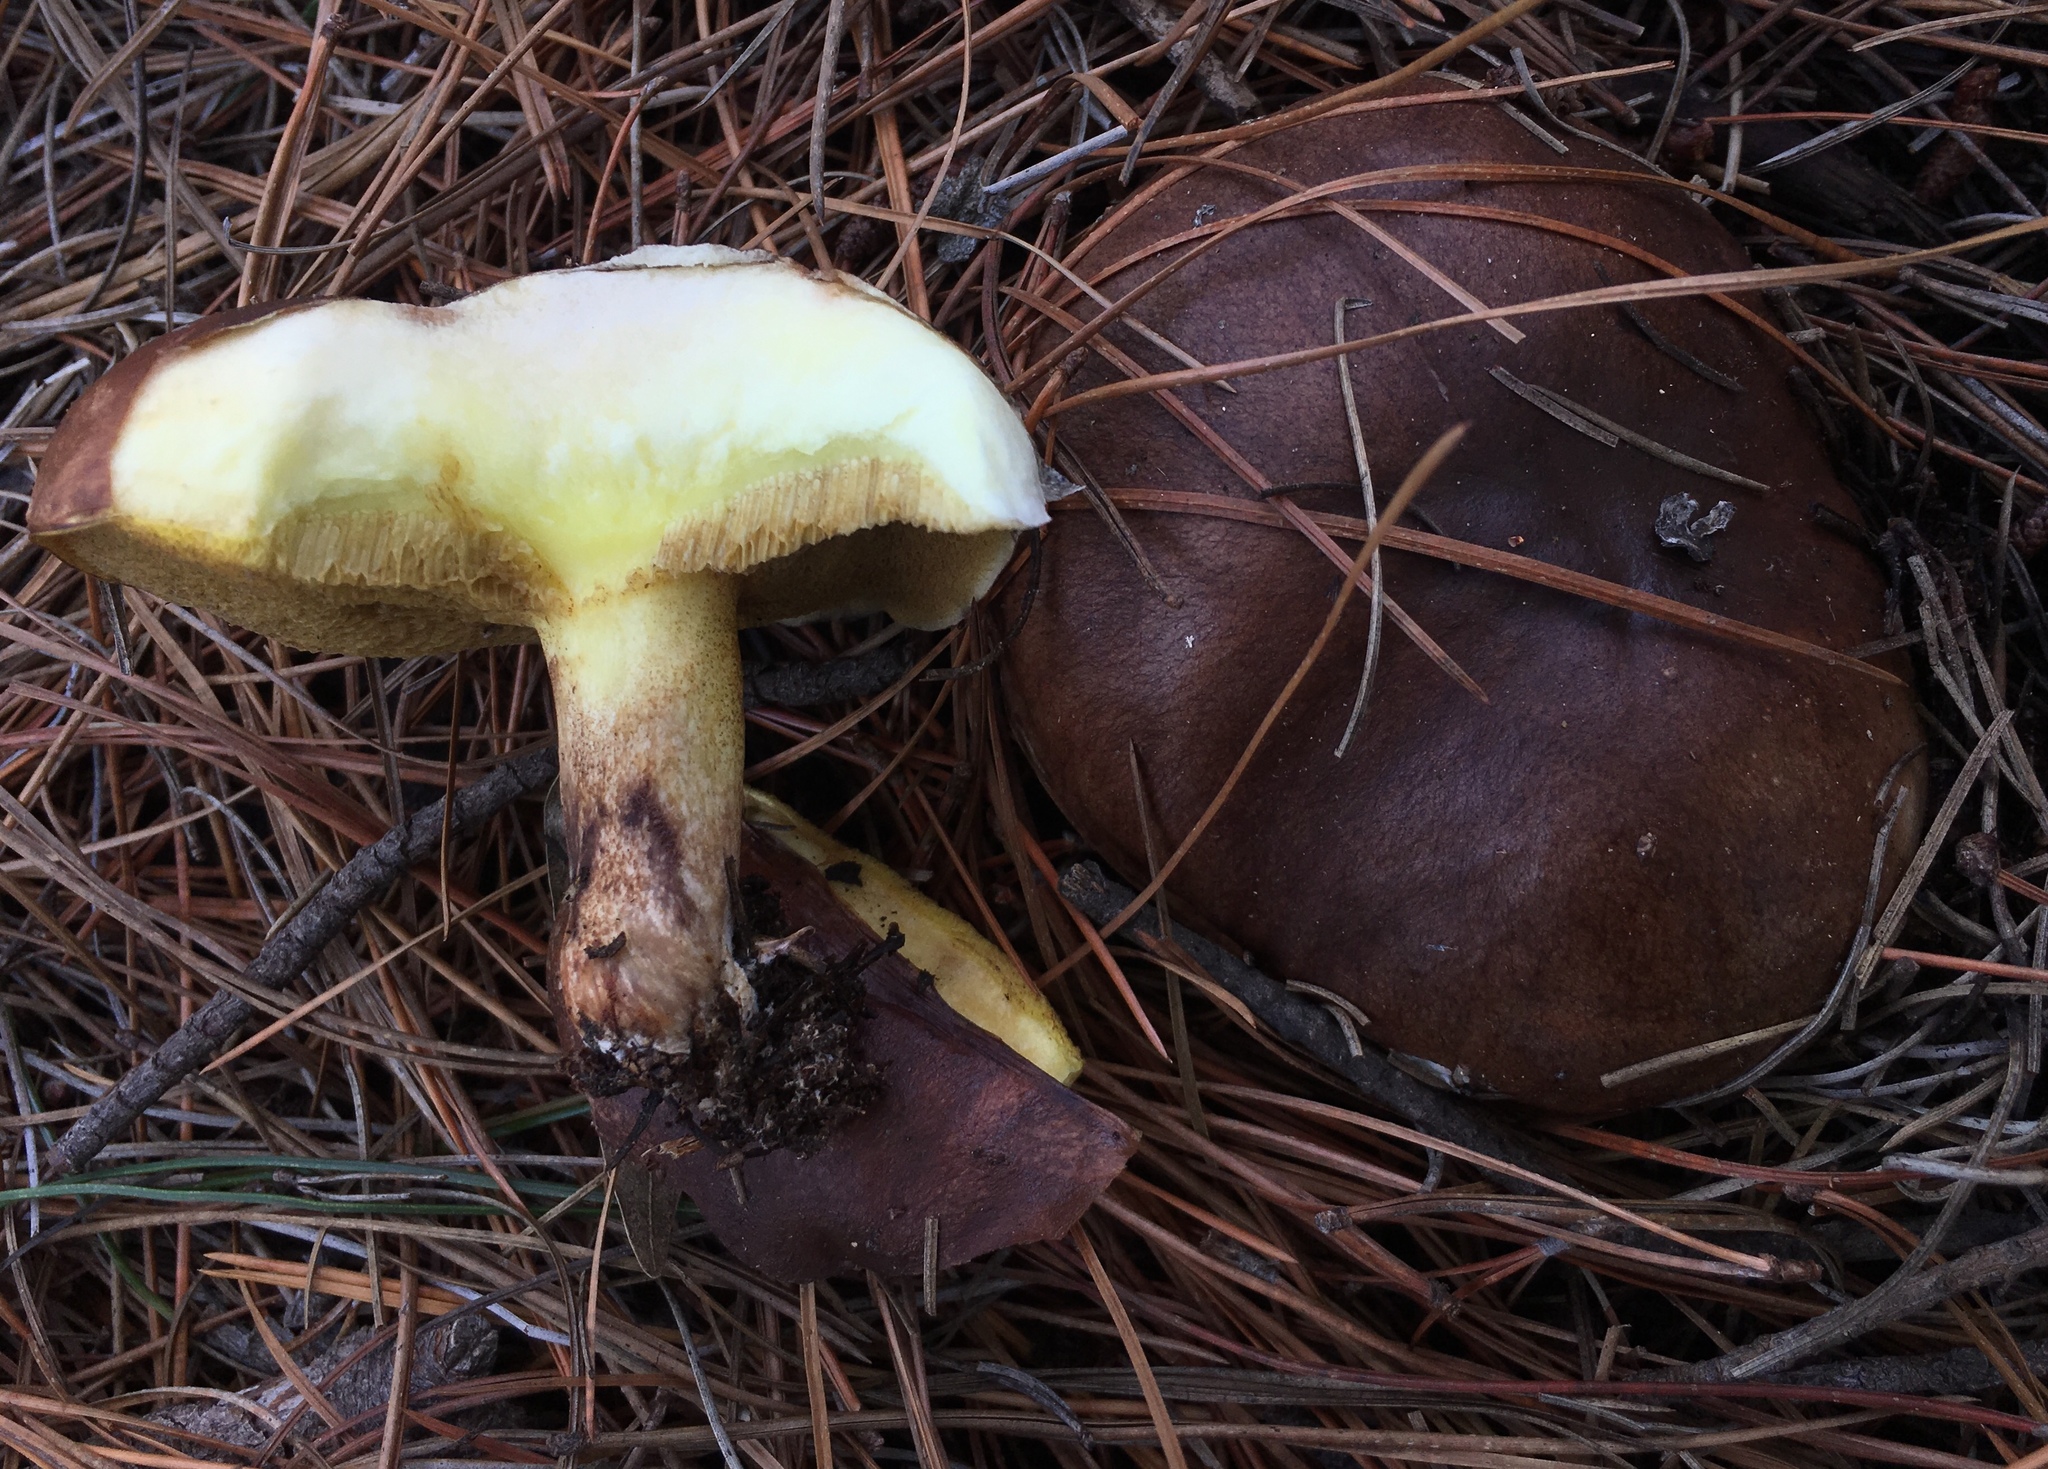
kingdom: Fungi
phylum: Basidiomycota
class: Agaricomycetes
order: Boletales
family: Suillaceae
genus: Suillus
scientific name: Suillus brevipes
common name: Short-stalked suillus
